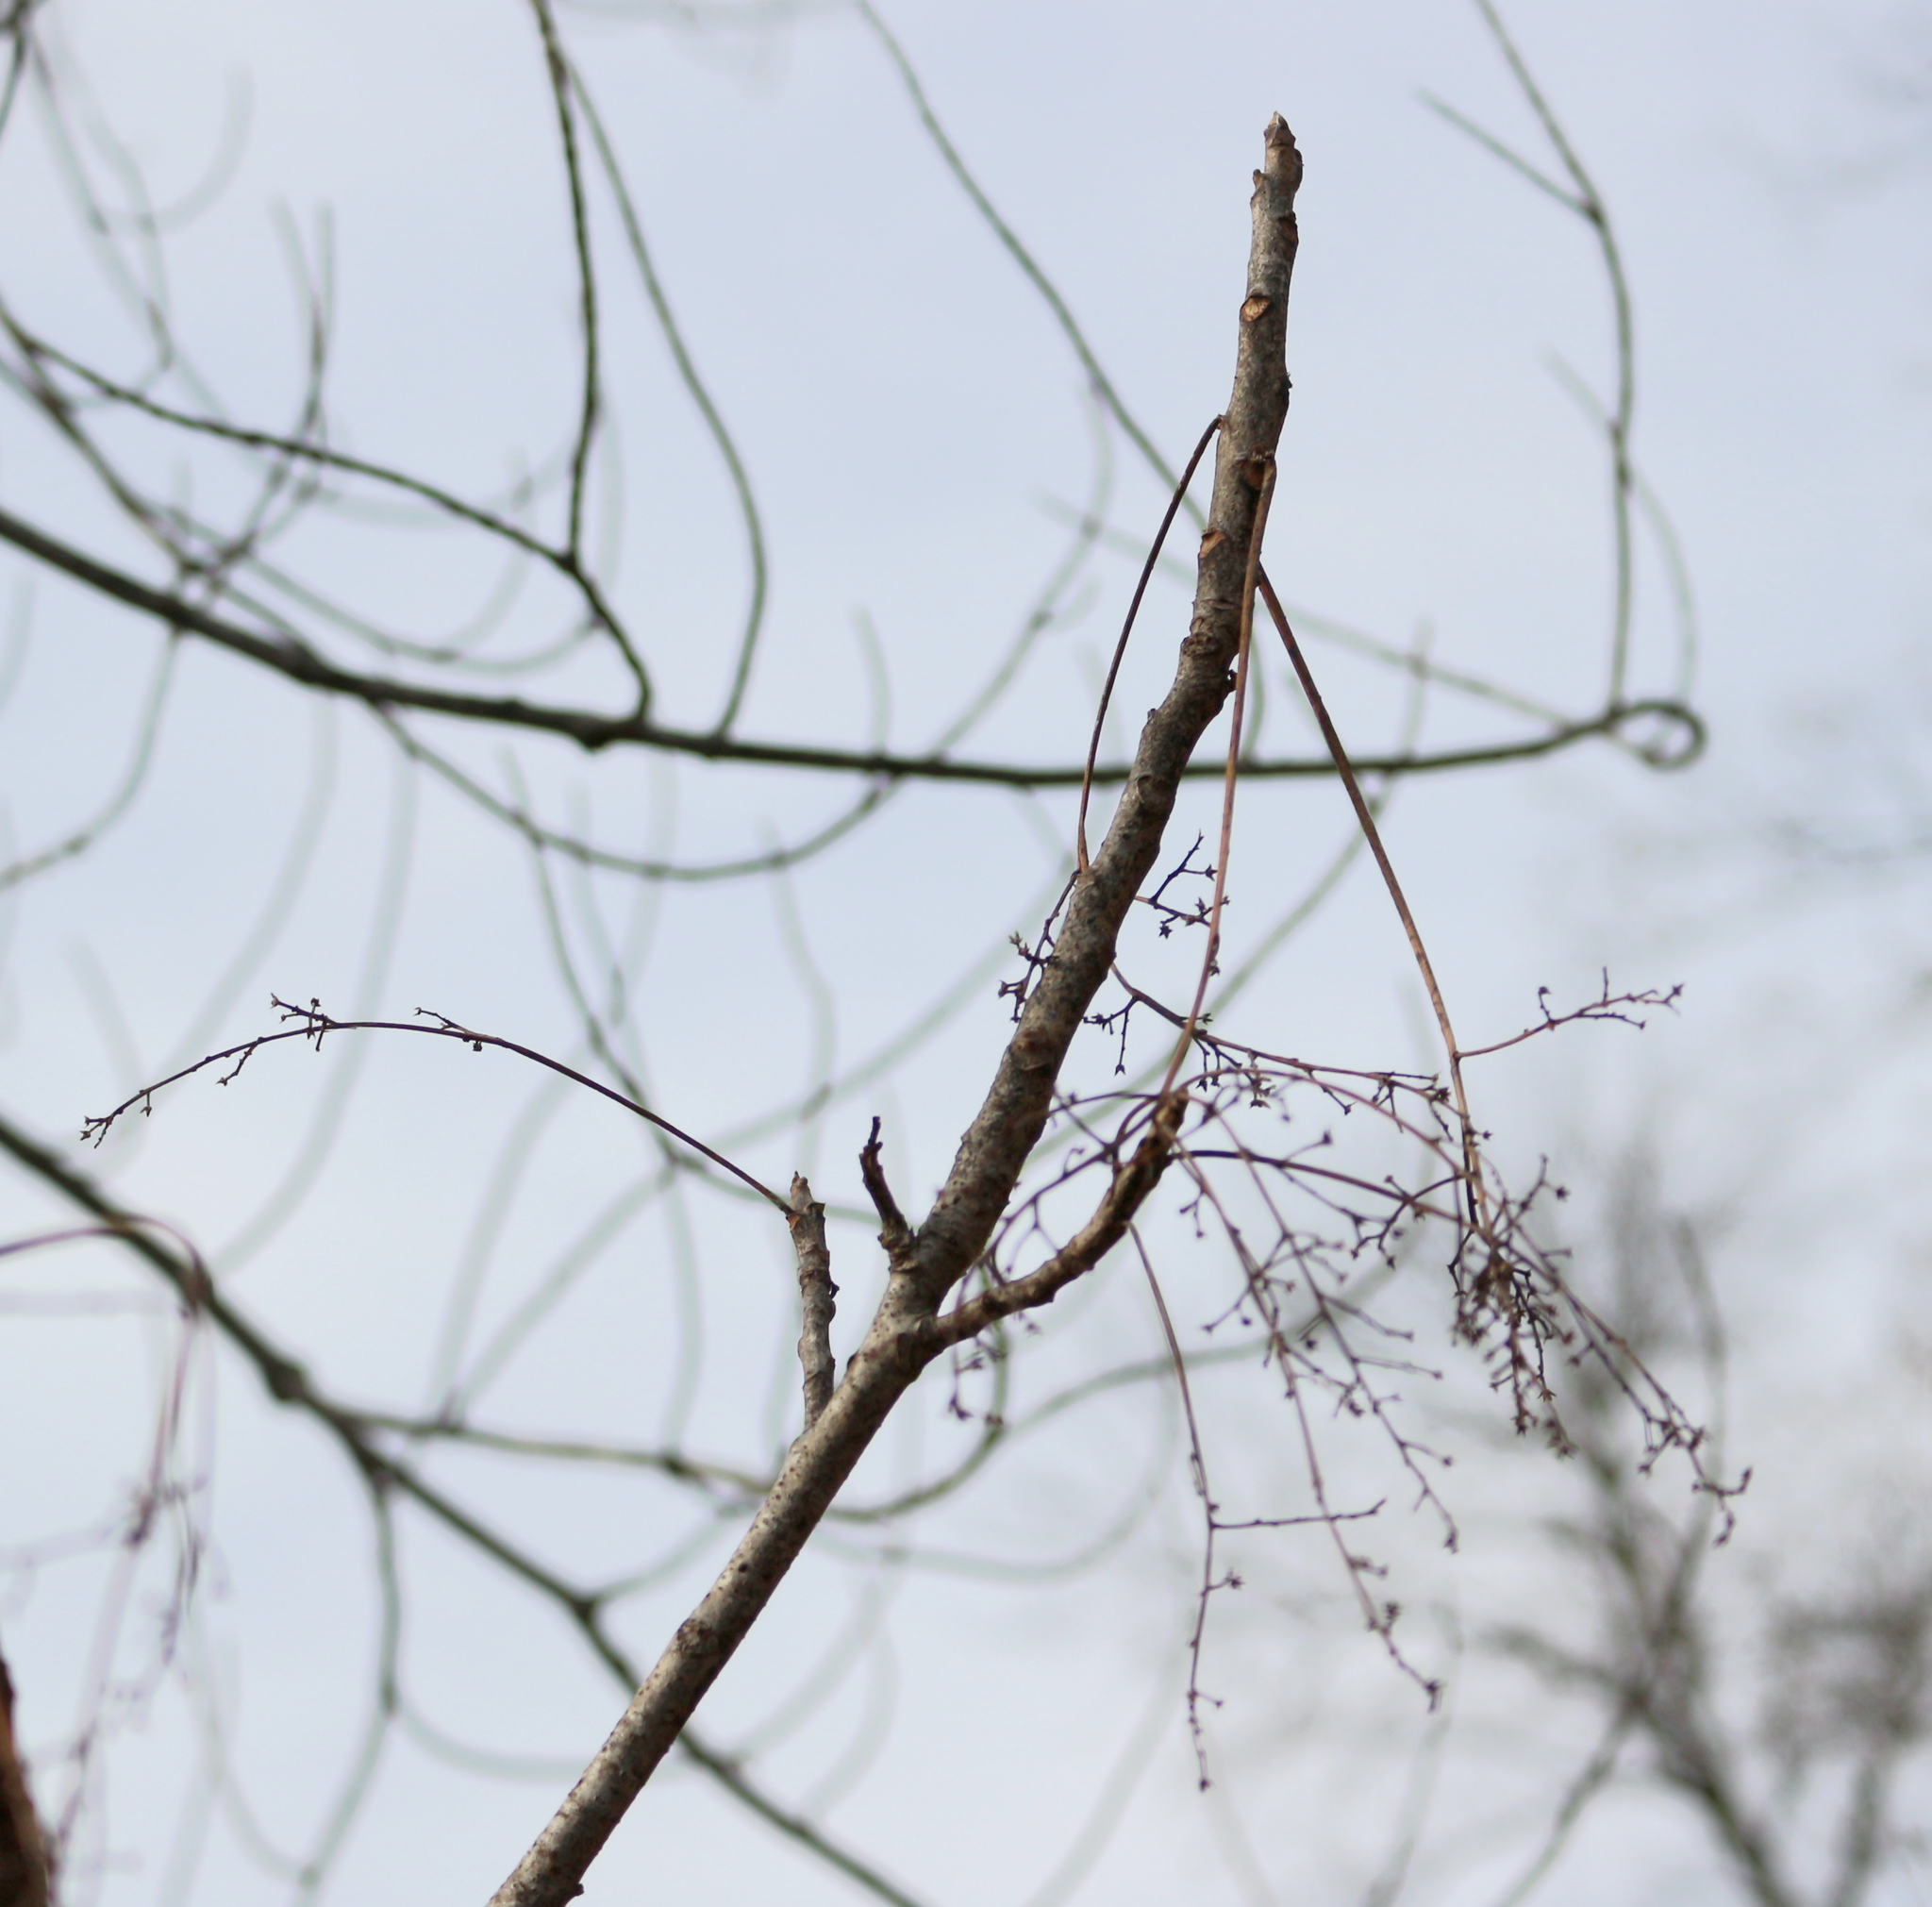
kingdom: Plantae
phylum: Tracheophyta
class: Magnoliopsida
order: Sapindales
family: Anacardiaceae
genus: Toxicodendron
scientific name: Toxicodendron vernix
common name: Poison sumac
